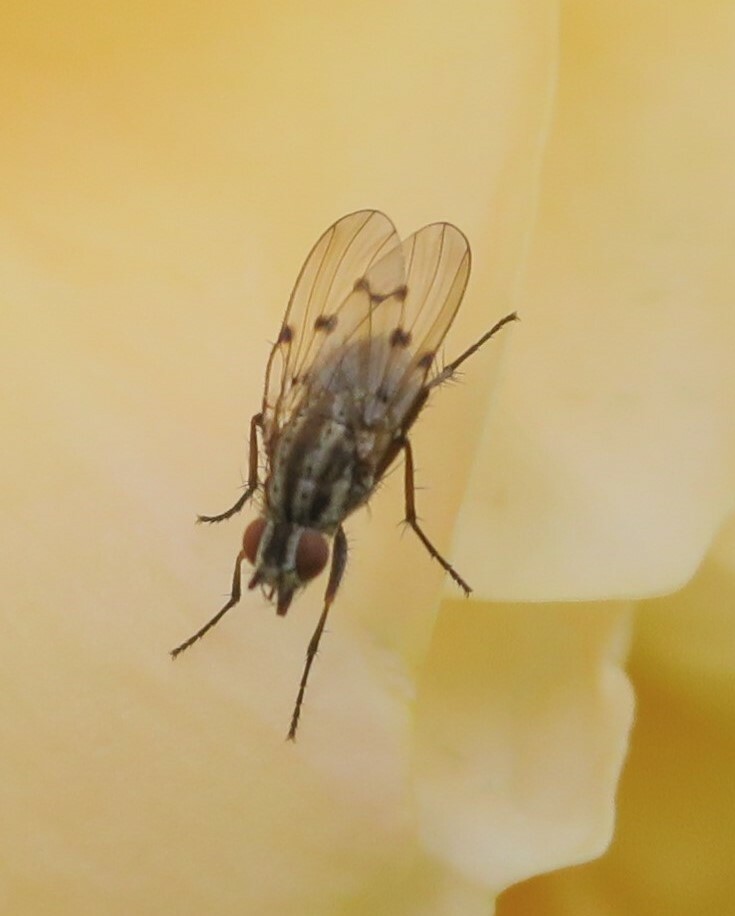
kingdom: Animalia
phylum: Arthropoda
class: Insecta
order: Diptera
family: Anthomyiidae
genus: Anthomyia
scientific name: Anthomyia punctipennis
